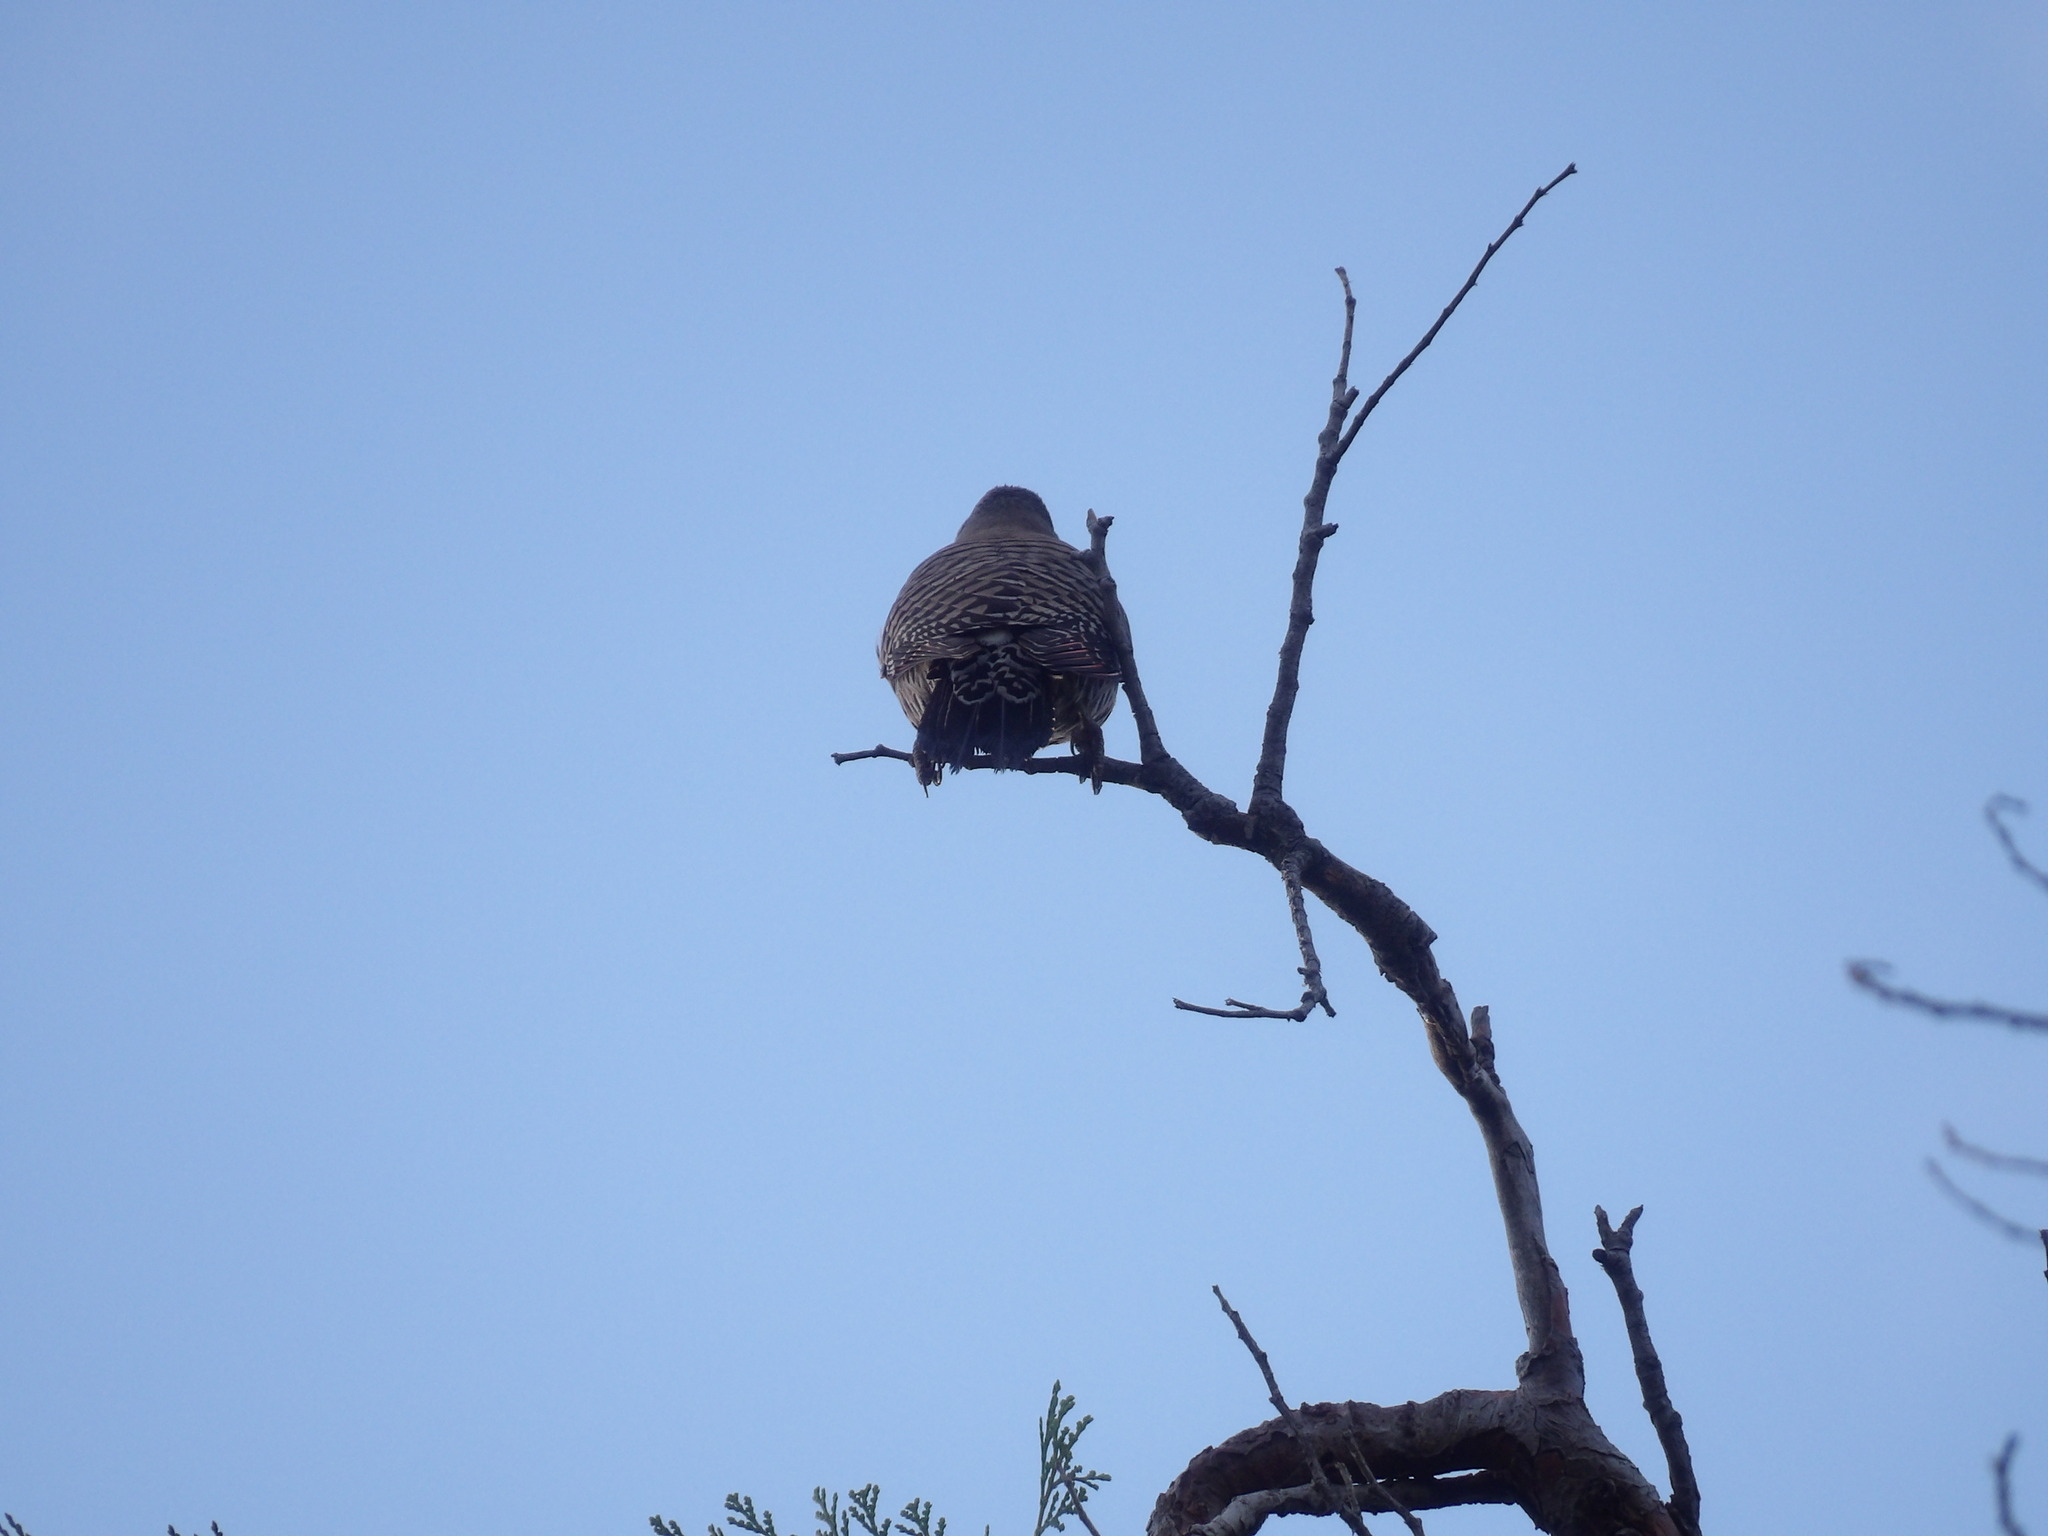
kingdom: Animalia
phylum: Chordata
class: Aves
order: Piciformes
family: Picidae
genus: Colaptes
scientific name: Colaptes auratus
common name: Northern flicker
